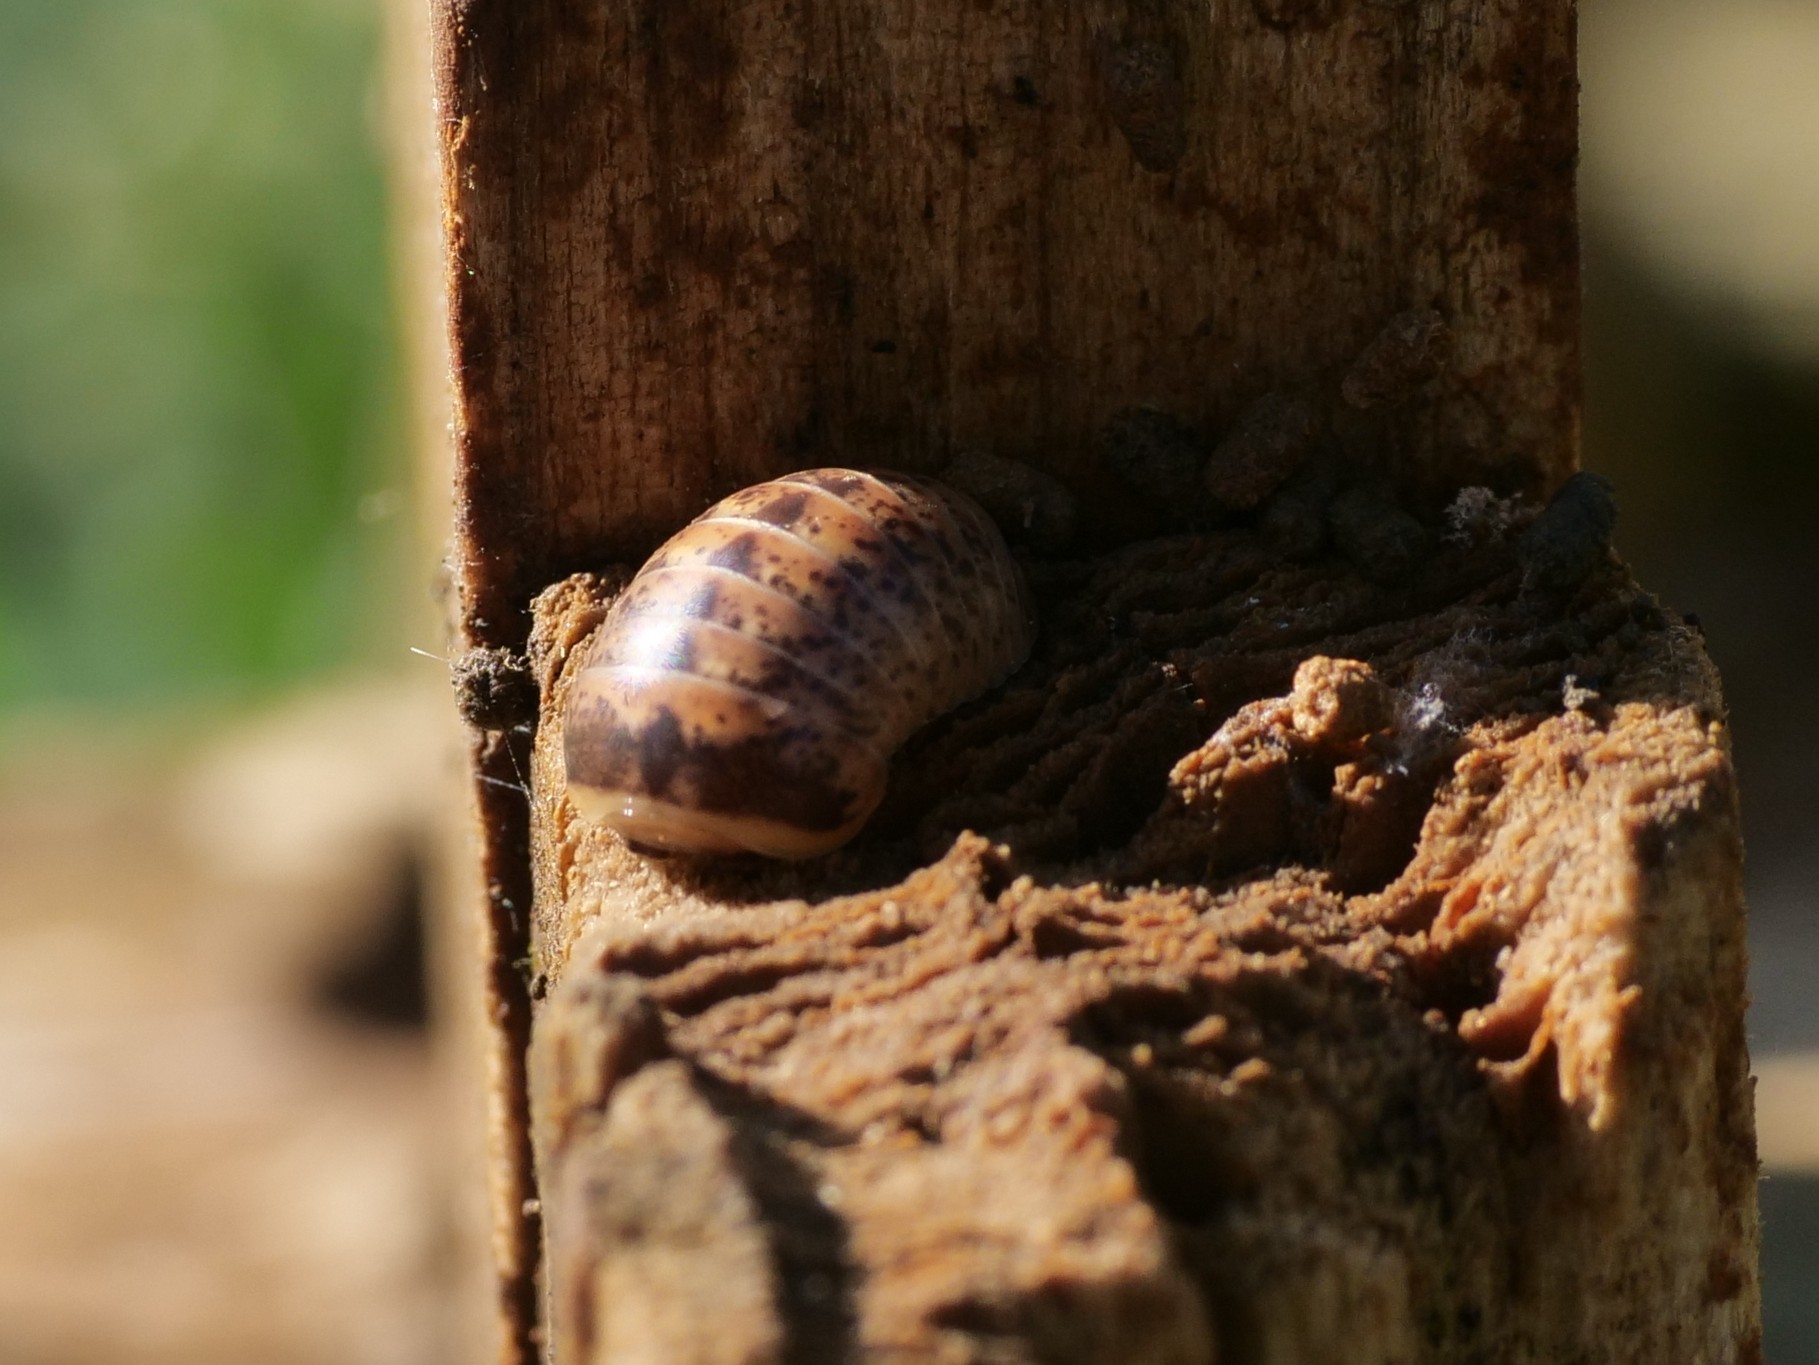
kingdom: Animalia
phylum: Arthropoda
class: Diplopoda
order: Glomerida
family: Glomeridae
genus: Glomeris
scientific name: Glomeris klugii
